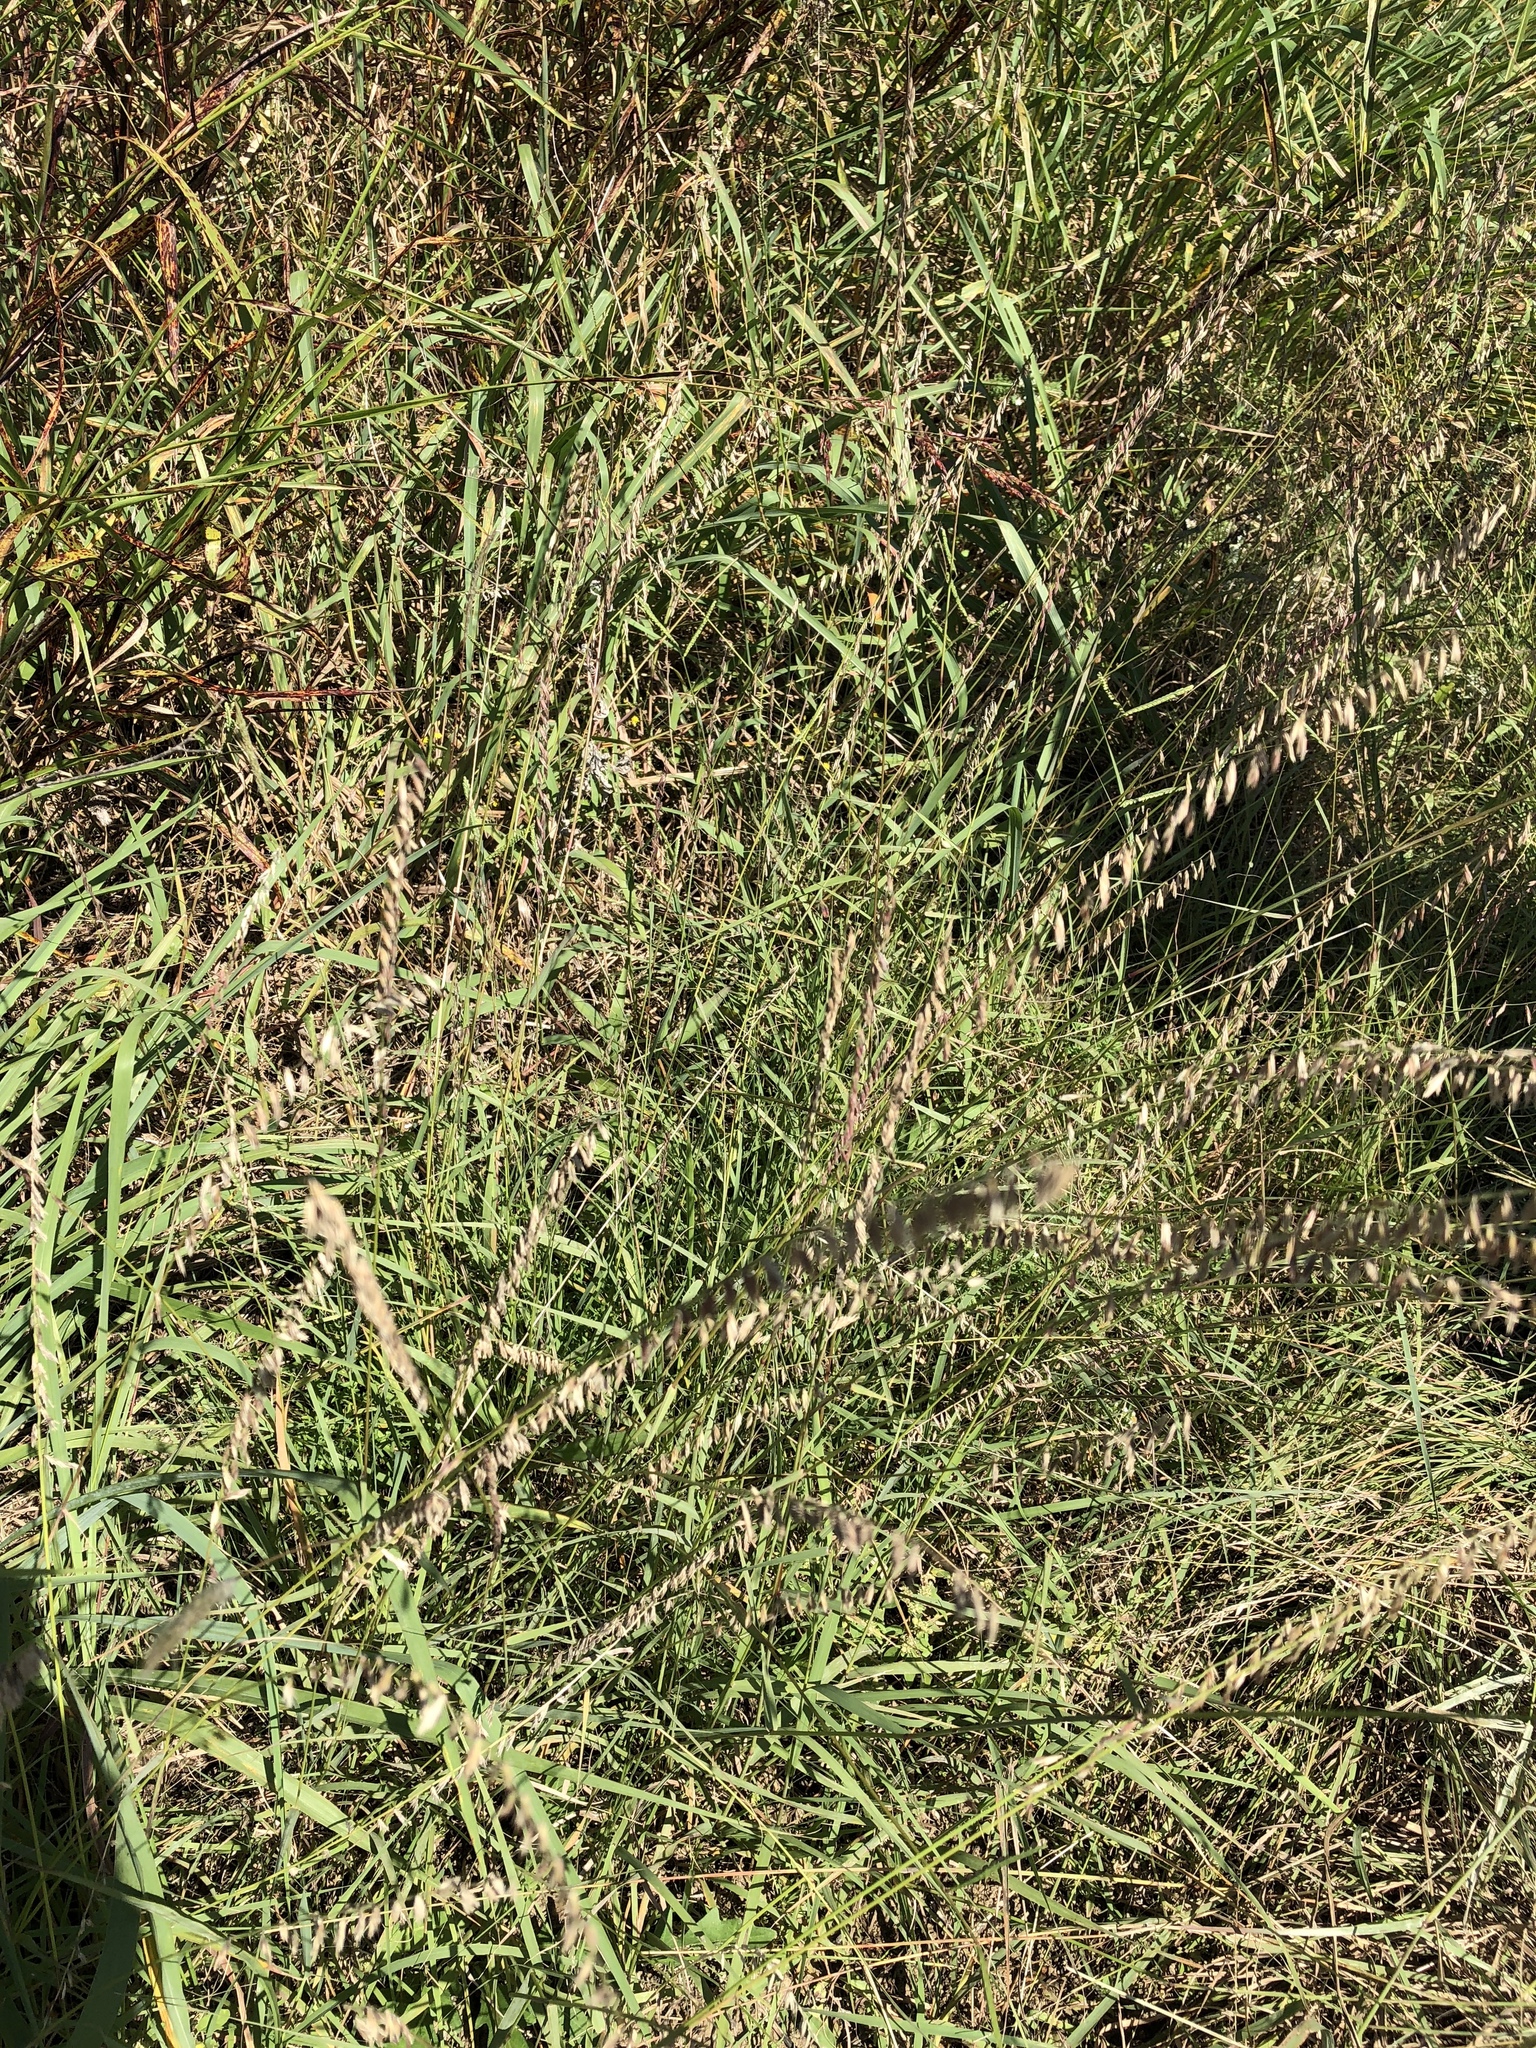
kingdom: Plantae
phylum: Tracheophyta
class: Liliopsida
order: Poales
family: Poaceae
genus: Bouteloua
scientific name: Bouteloua curtipendula
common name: Side-oats grama
